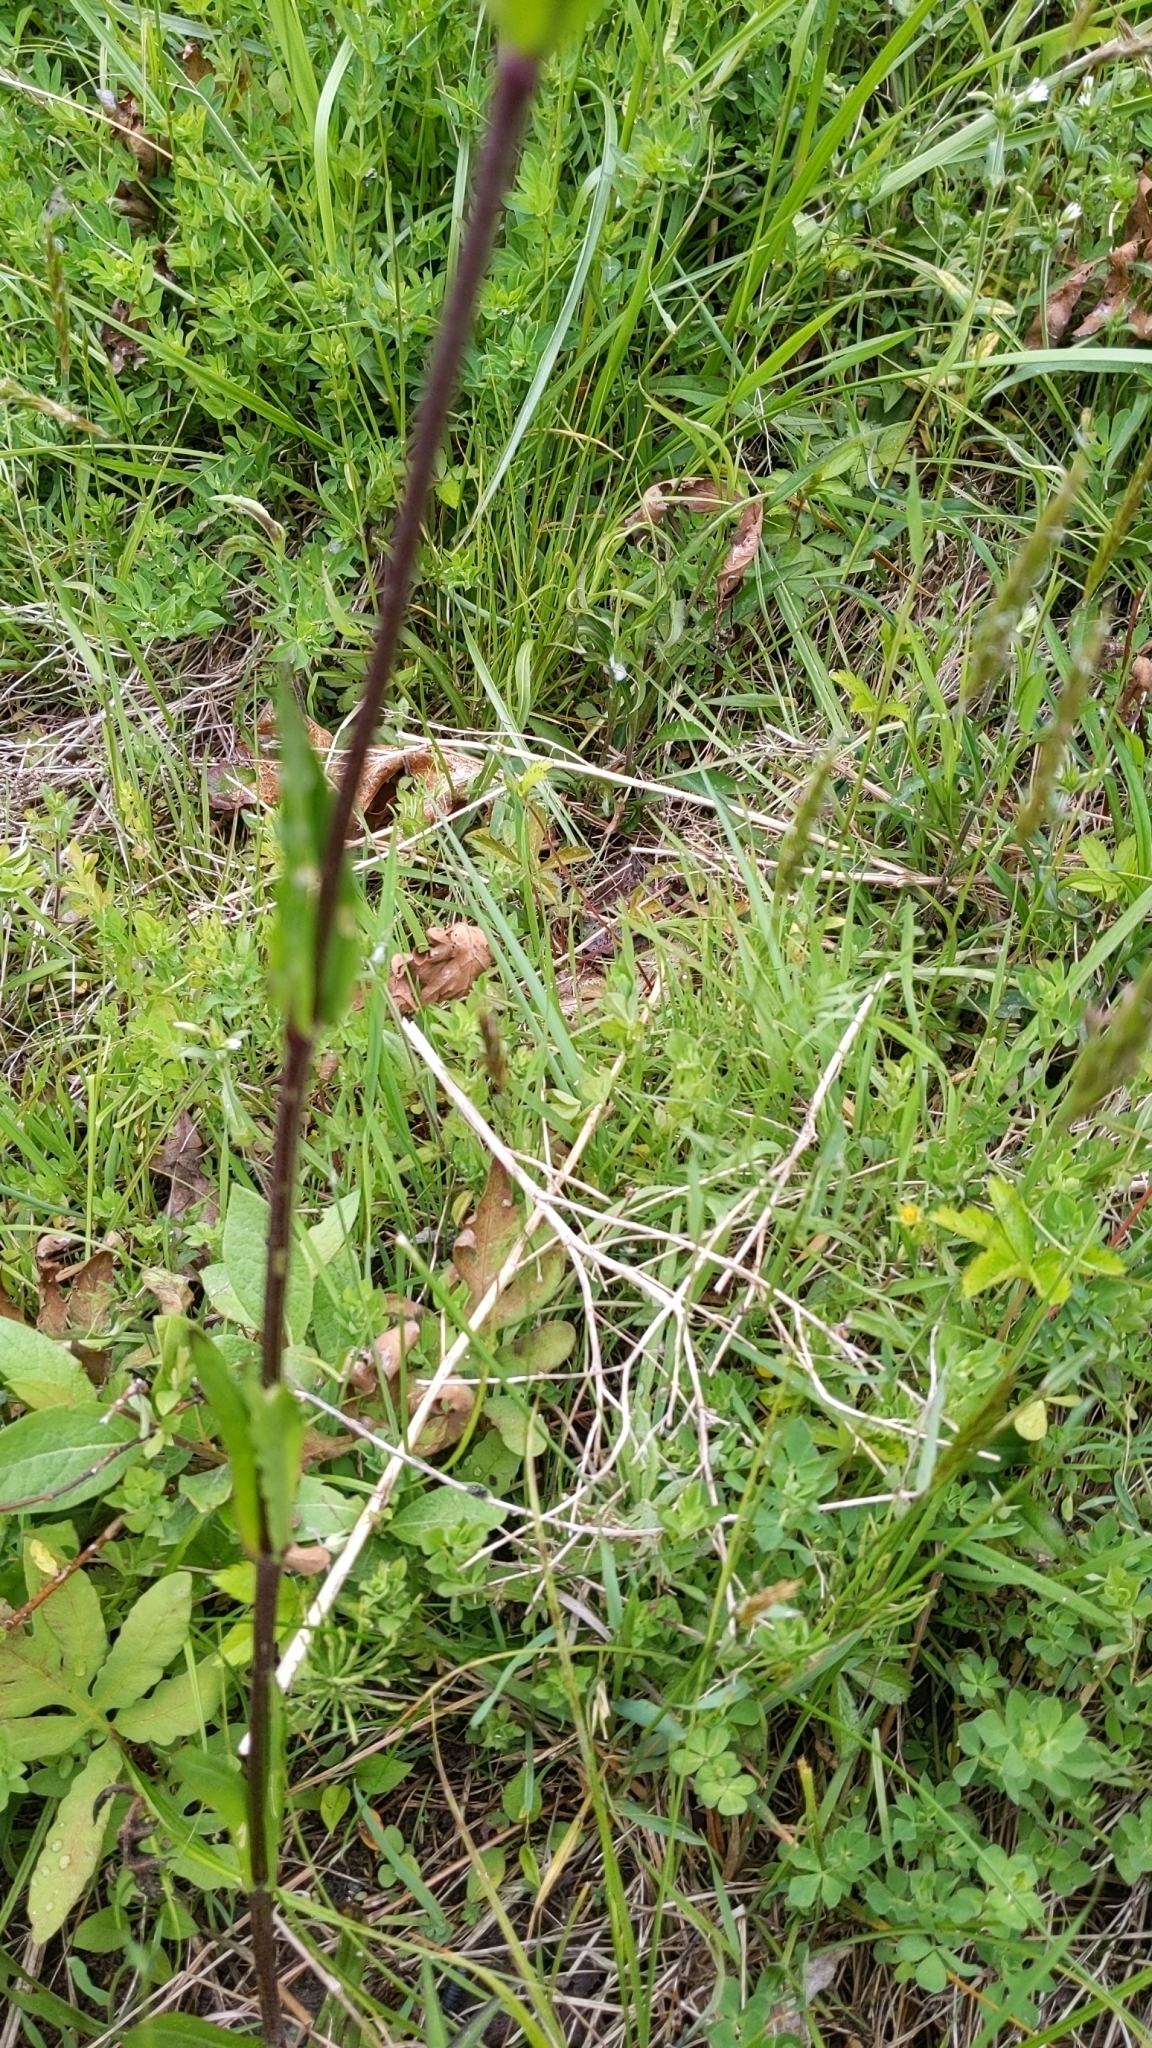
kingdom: Plantae
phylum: Tracheophyta
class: Magnoliopsida
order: Caryophyllales
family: Caryophyllaceae
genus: Silene
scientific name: Silene flos-cuculi
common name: Ragged-robin
